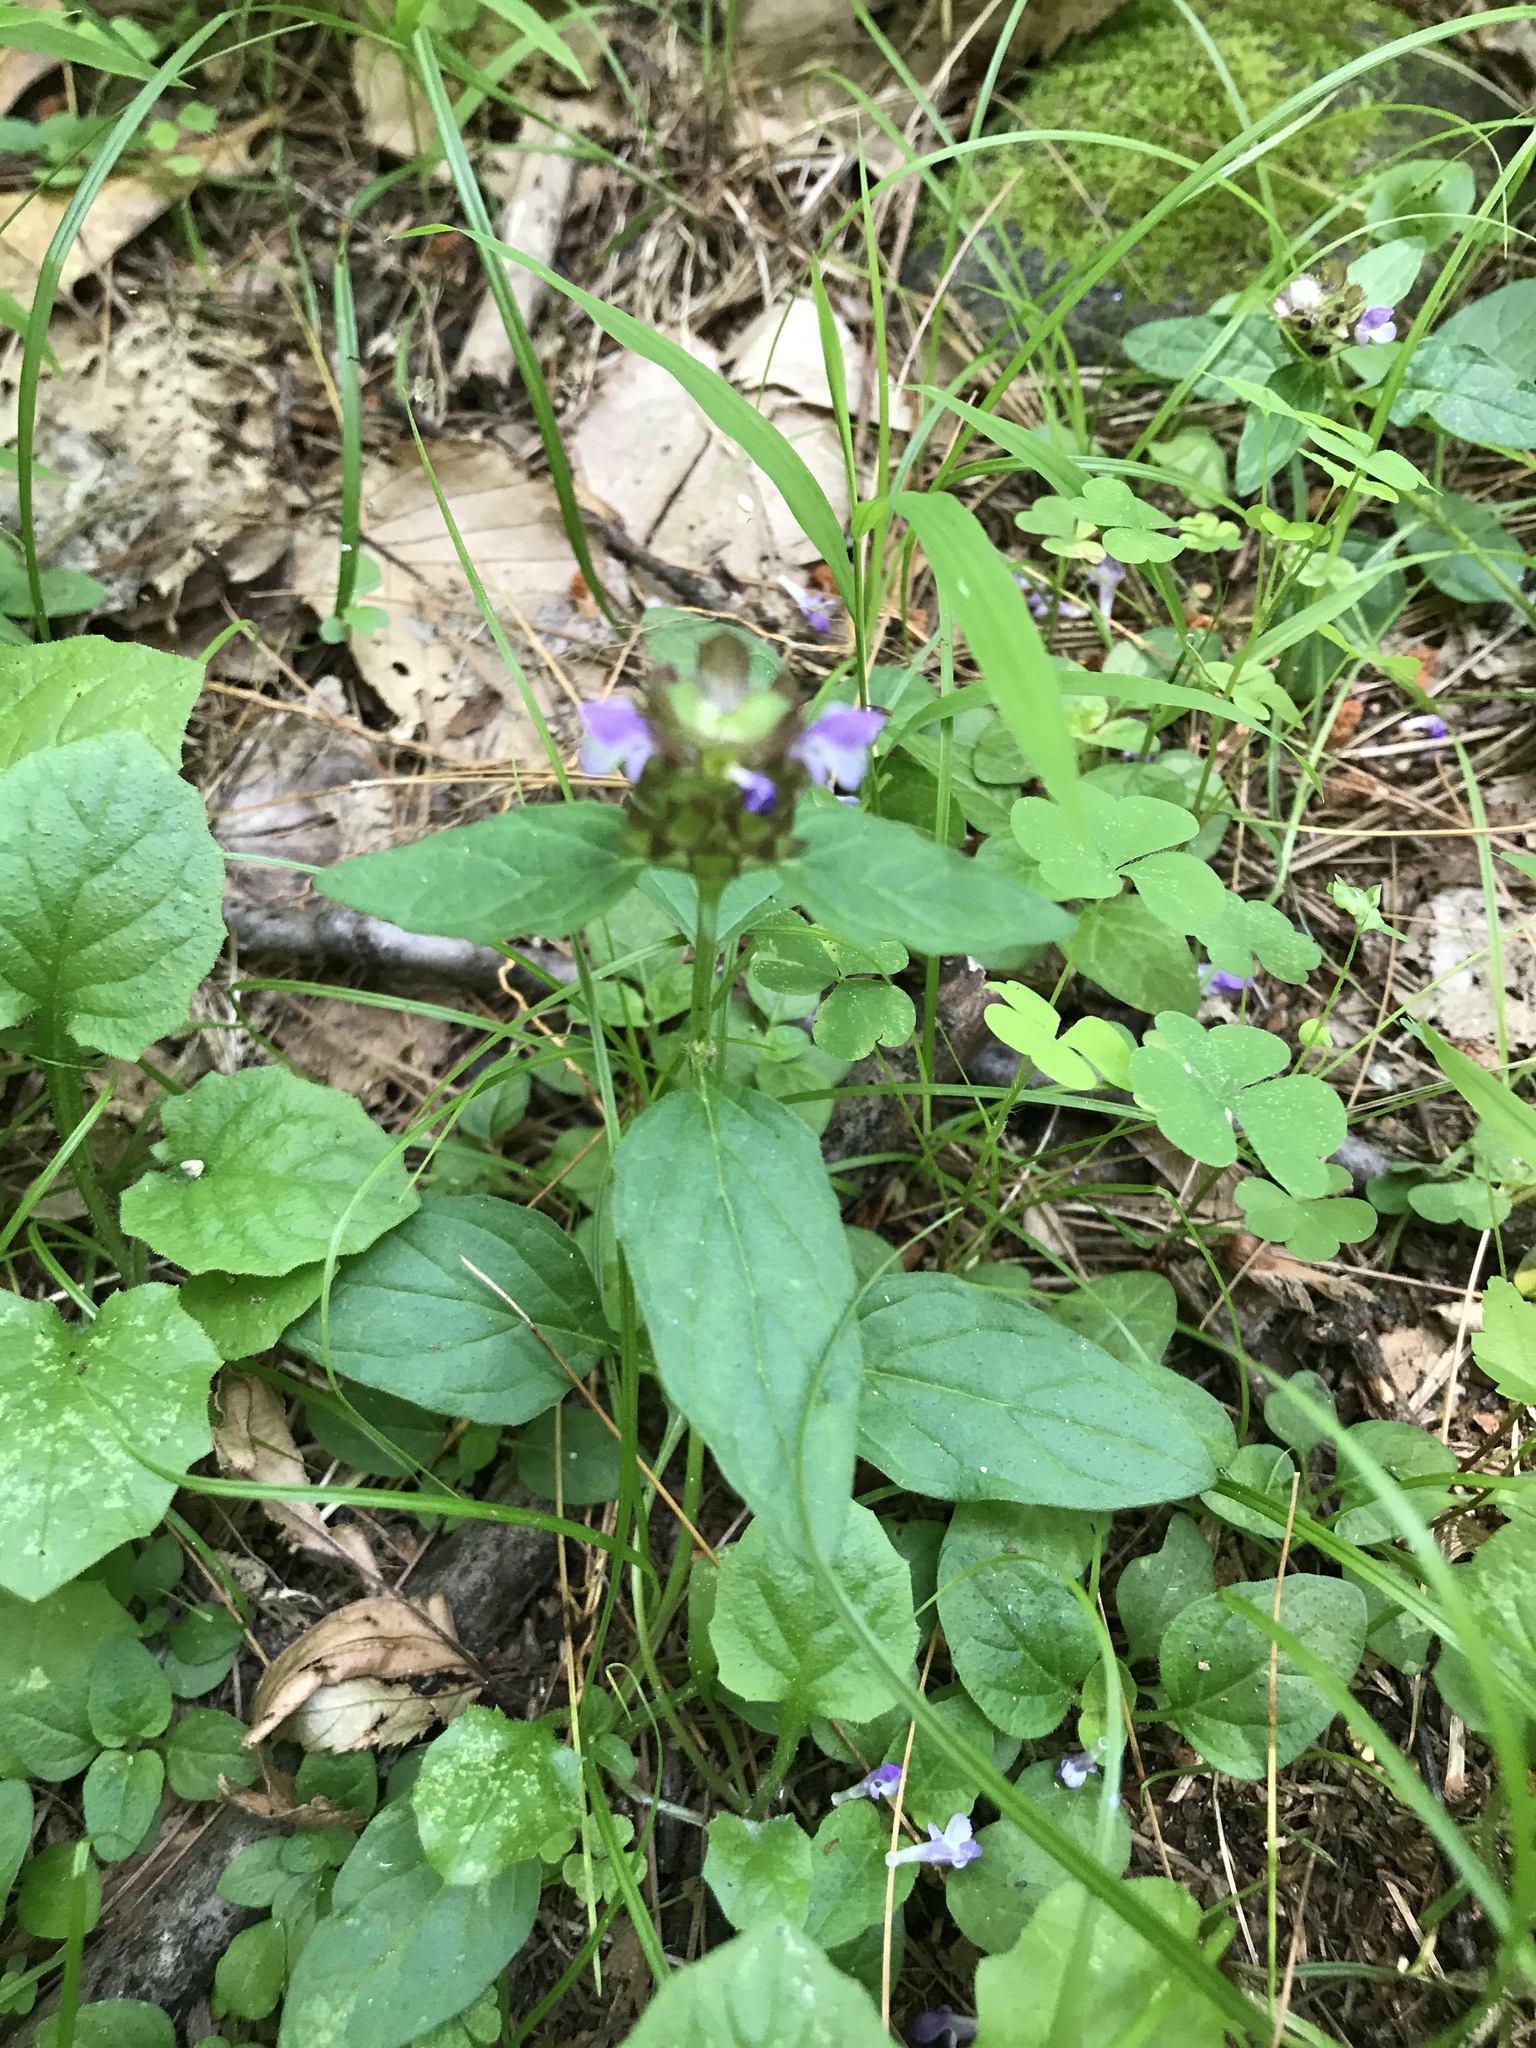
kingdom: Plantae
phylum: Tracheophyta
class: Magnoliopsida
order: Lamiales
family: Lamiaceae
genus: Prunella
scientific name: Prunella vulgaris
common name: Heal-all
